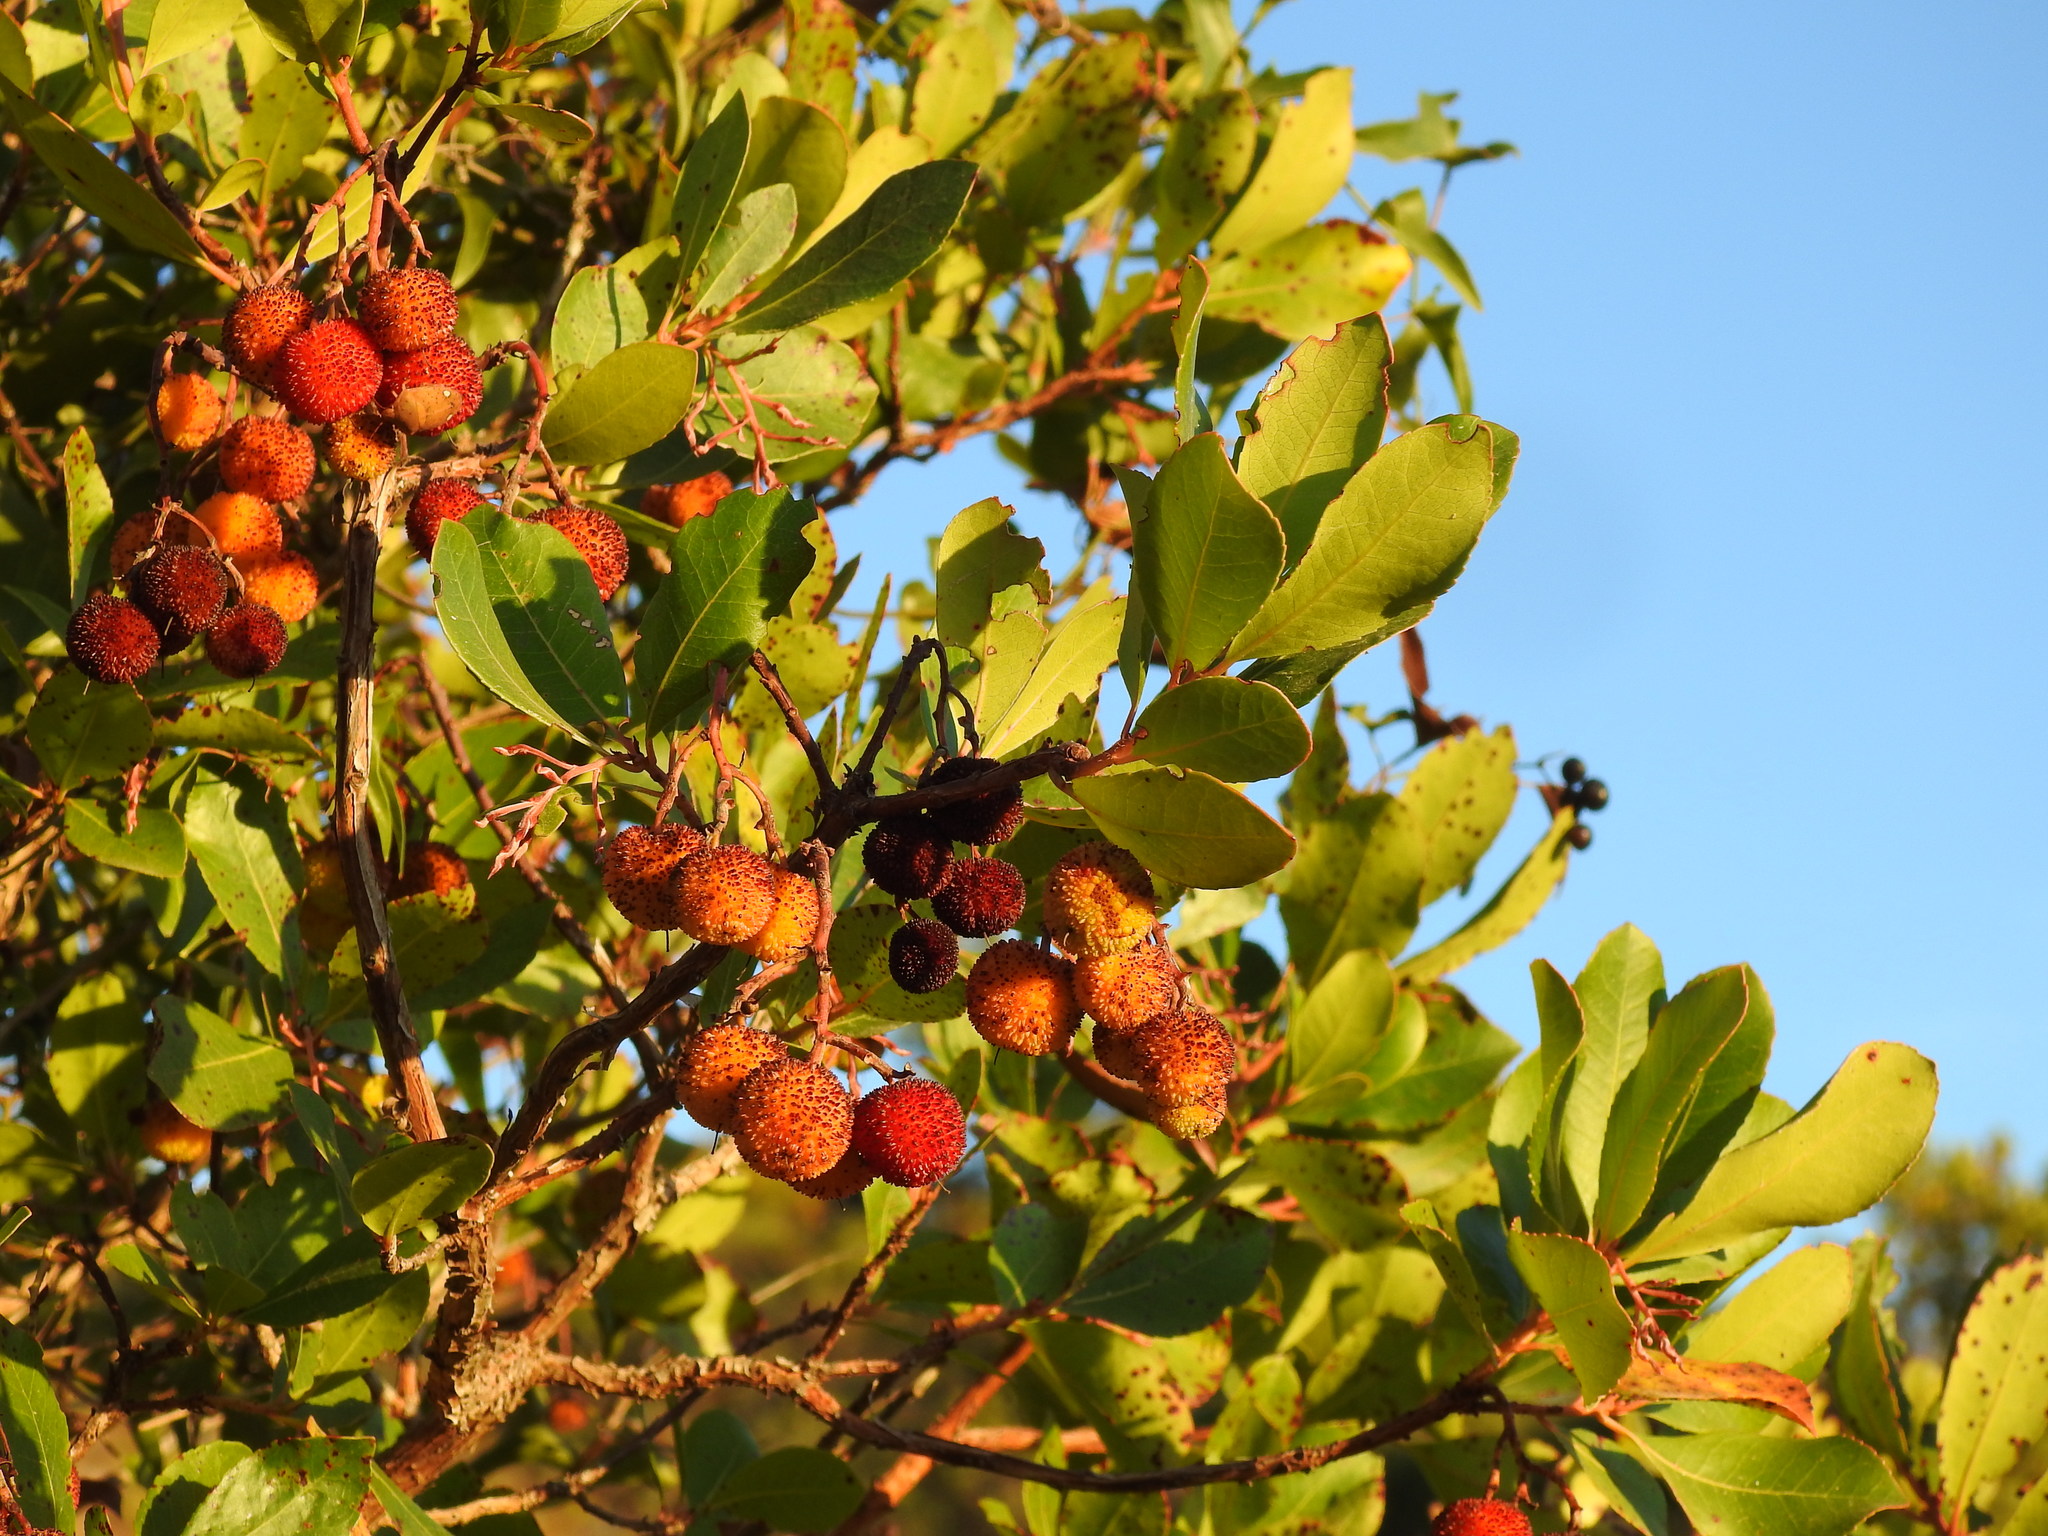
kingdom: Plantae
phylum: Tracheophyta
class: Magnoliopsida
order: Ericales
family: Ericaceae
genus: Arbutus
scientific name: Arbutus unedo
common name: Strawberry-tree
